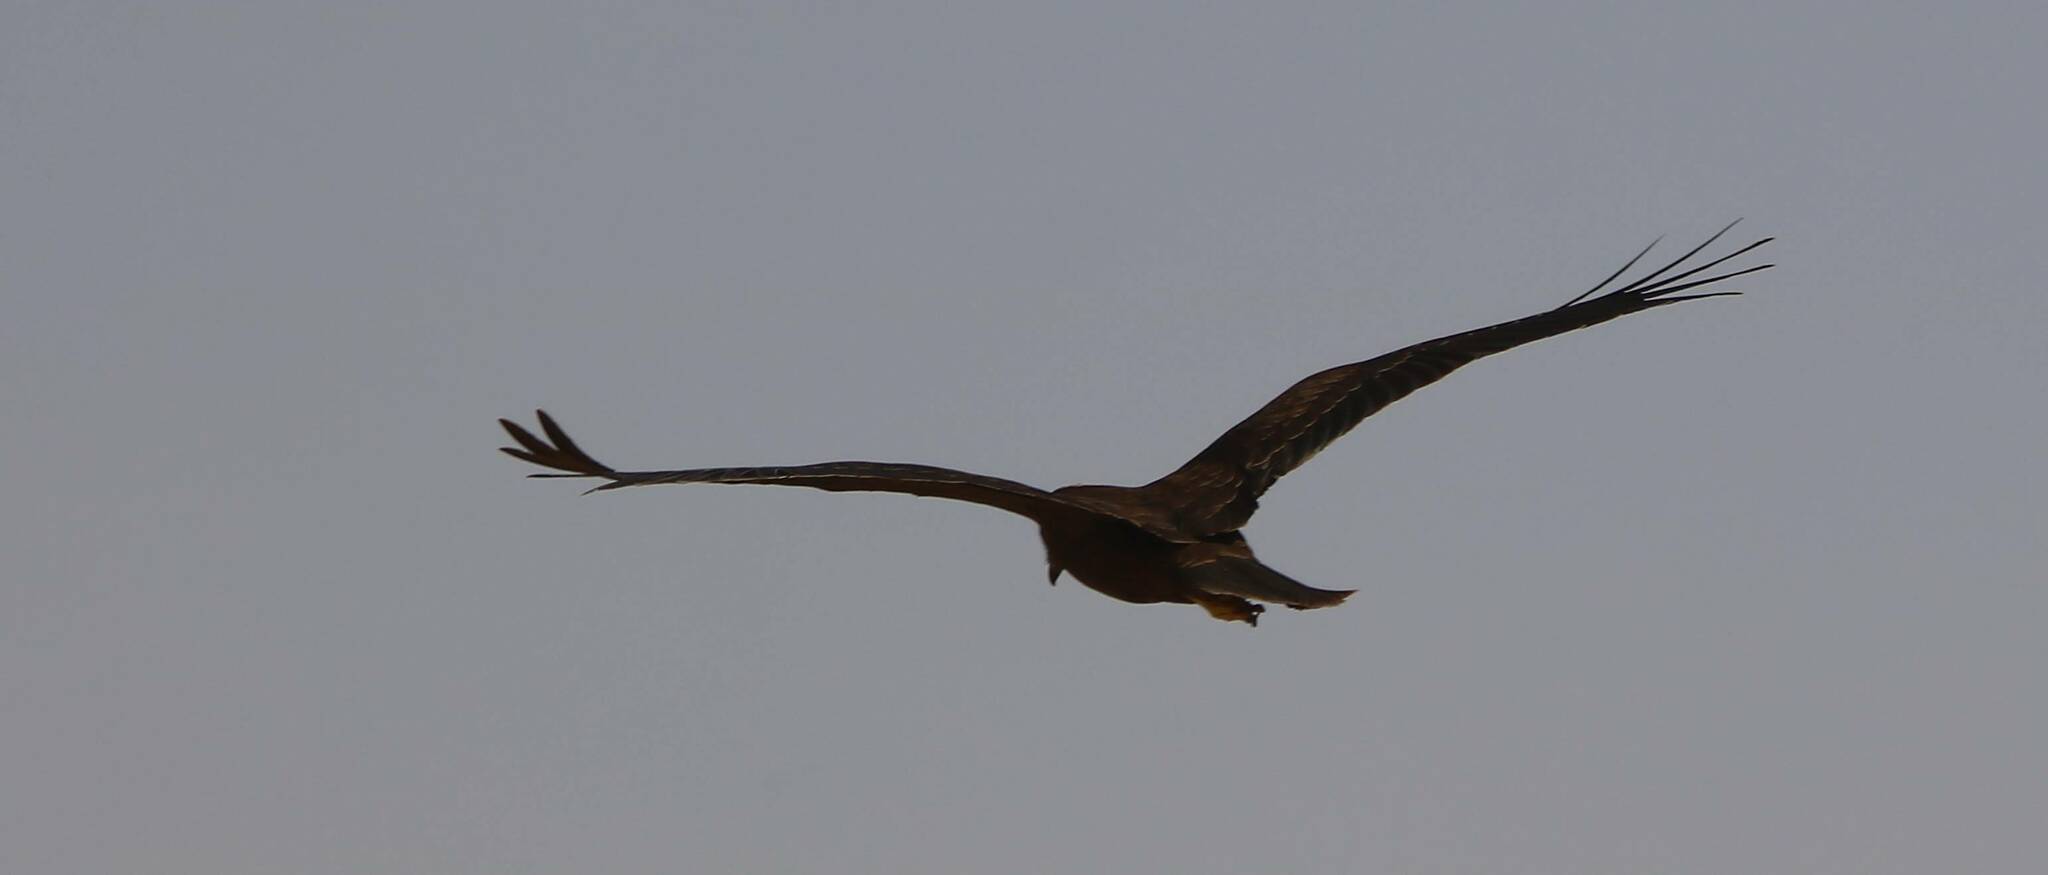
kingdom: Animalia
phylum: Chordata
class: Aves
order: Accipitriformes
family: Accipitridae
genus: Circus
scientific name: Circus aeruginosus
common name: Western marsh harrier
